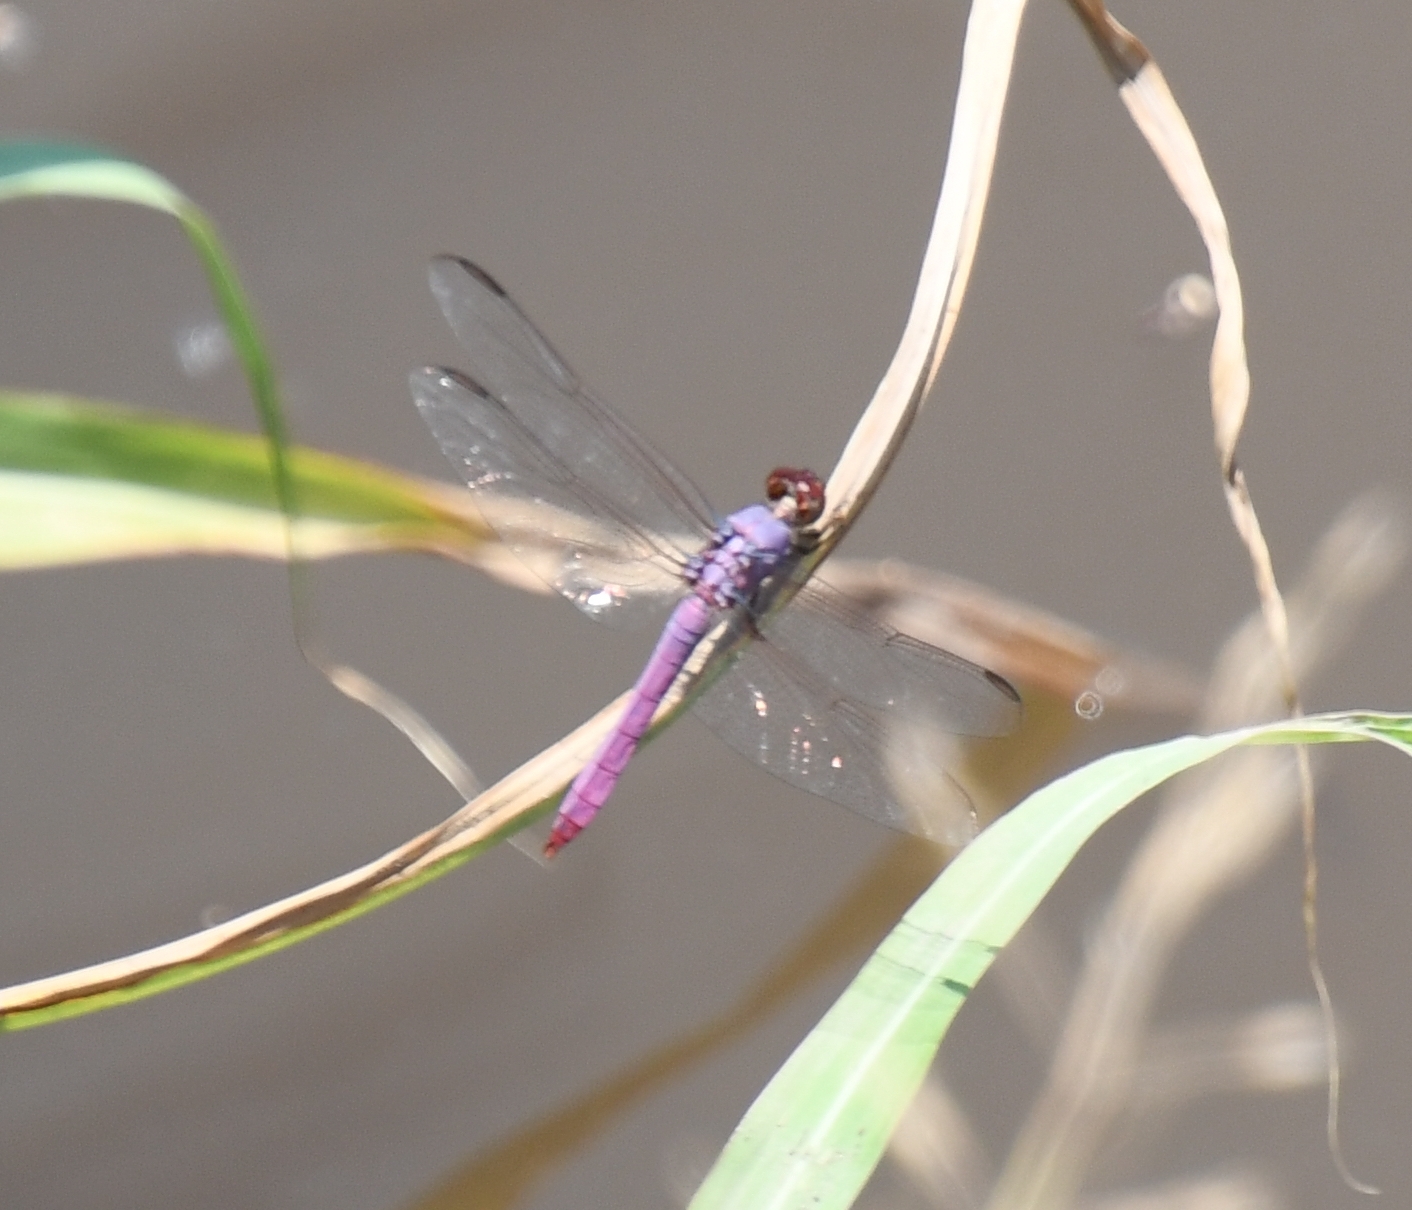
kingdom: Animalia
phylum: Arthropoda
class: Insecta
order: Odonata
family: Libellulidae
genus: Orthemis
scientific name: Orthemis ferruginea
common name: Roseate skimmer
